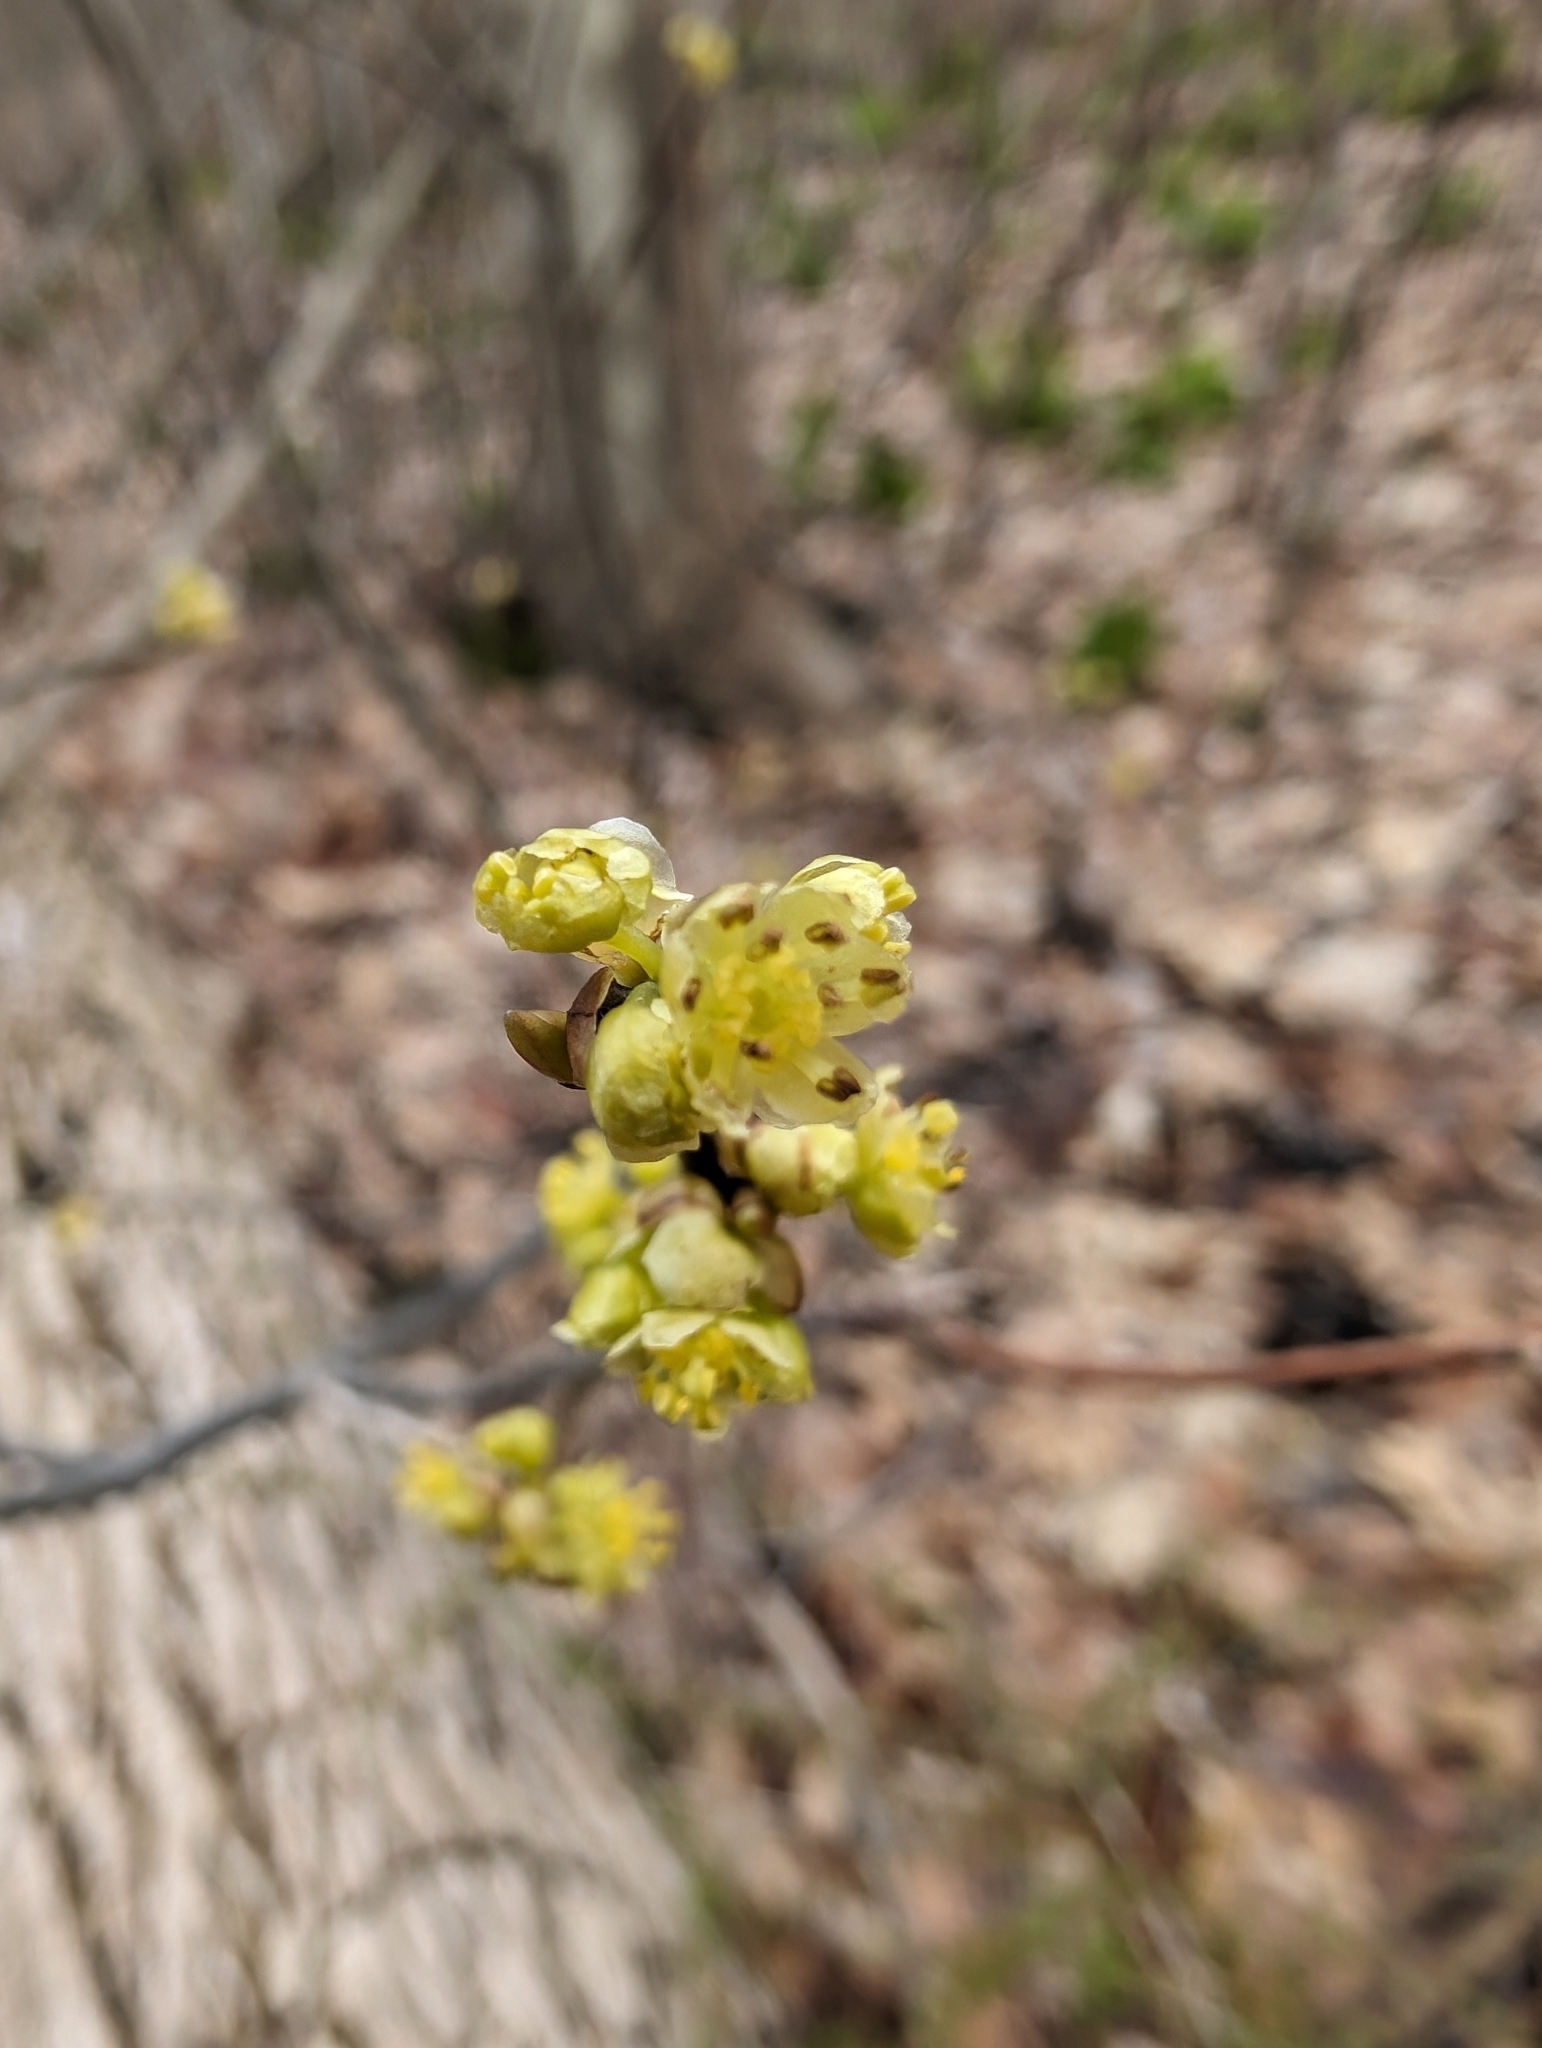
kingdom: Plantae
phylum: Tracheophyta
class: Magnoliopsida
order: Laurales
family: Lauraceae
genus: Lindera
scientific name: Lindera benzoin
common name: Spicebush
